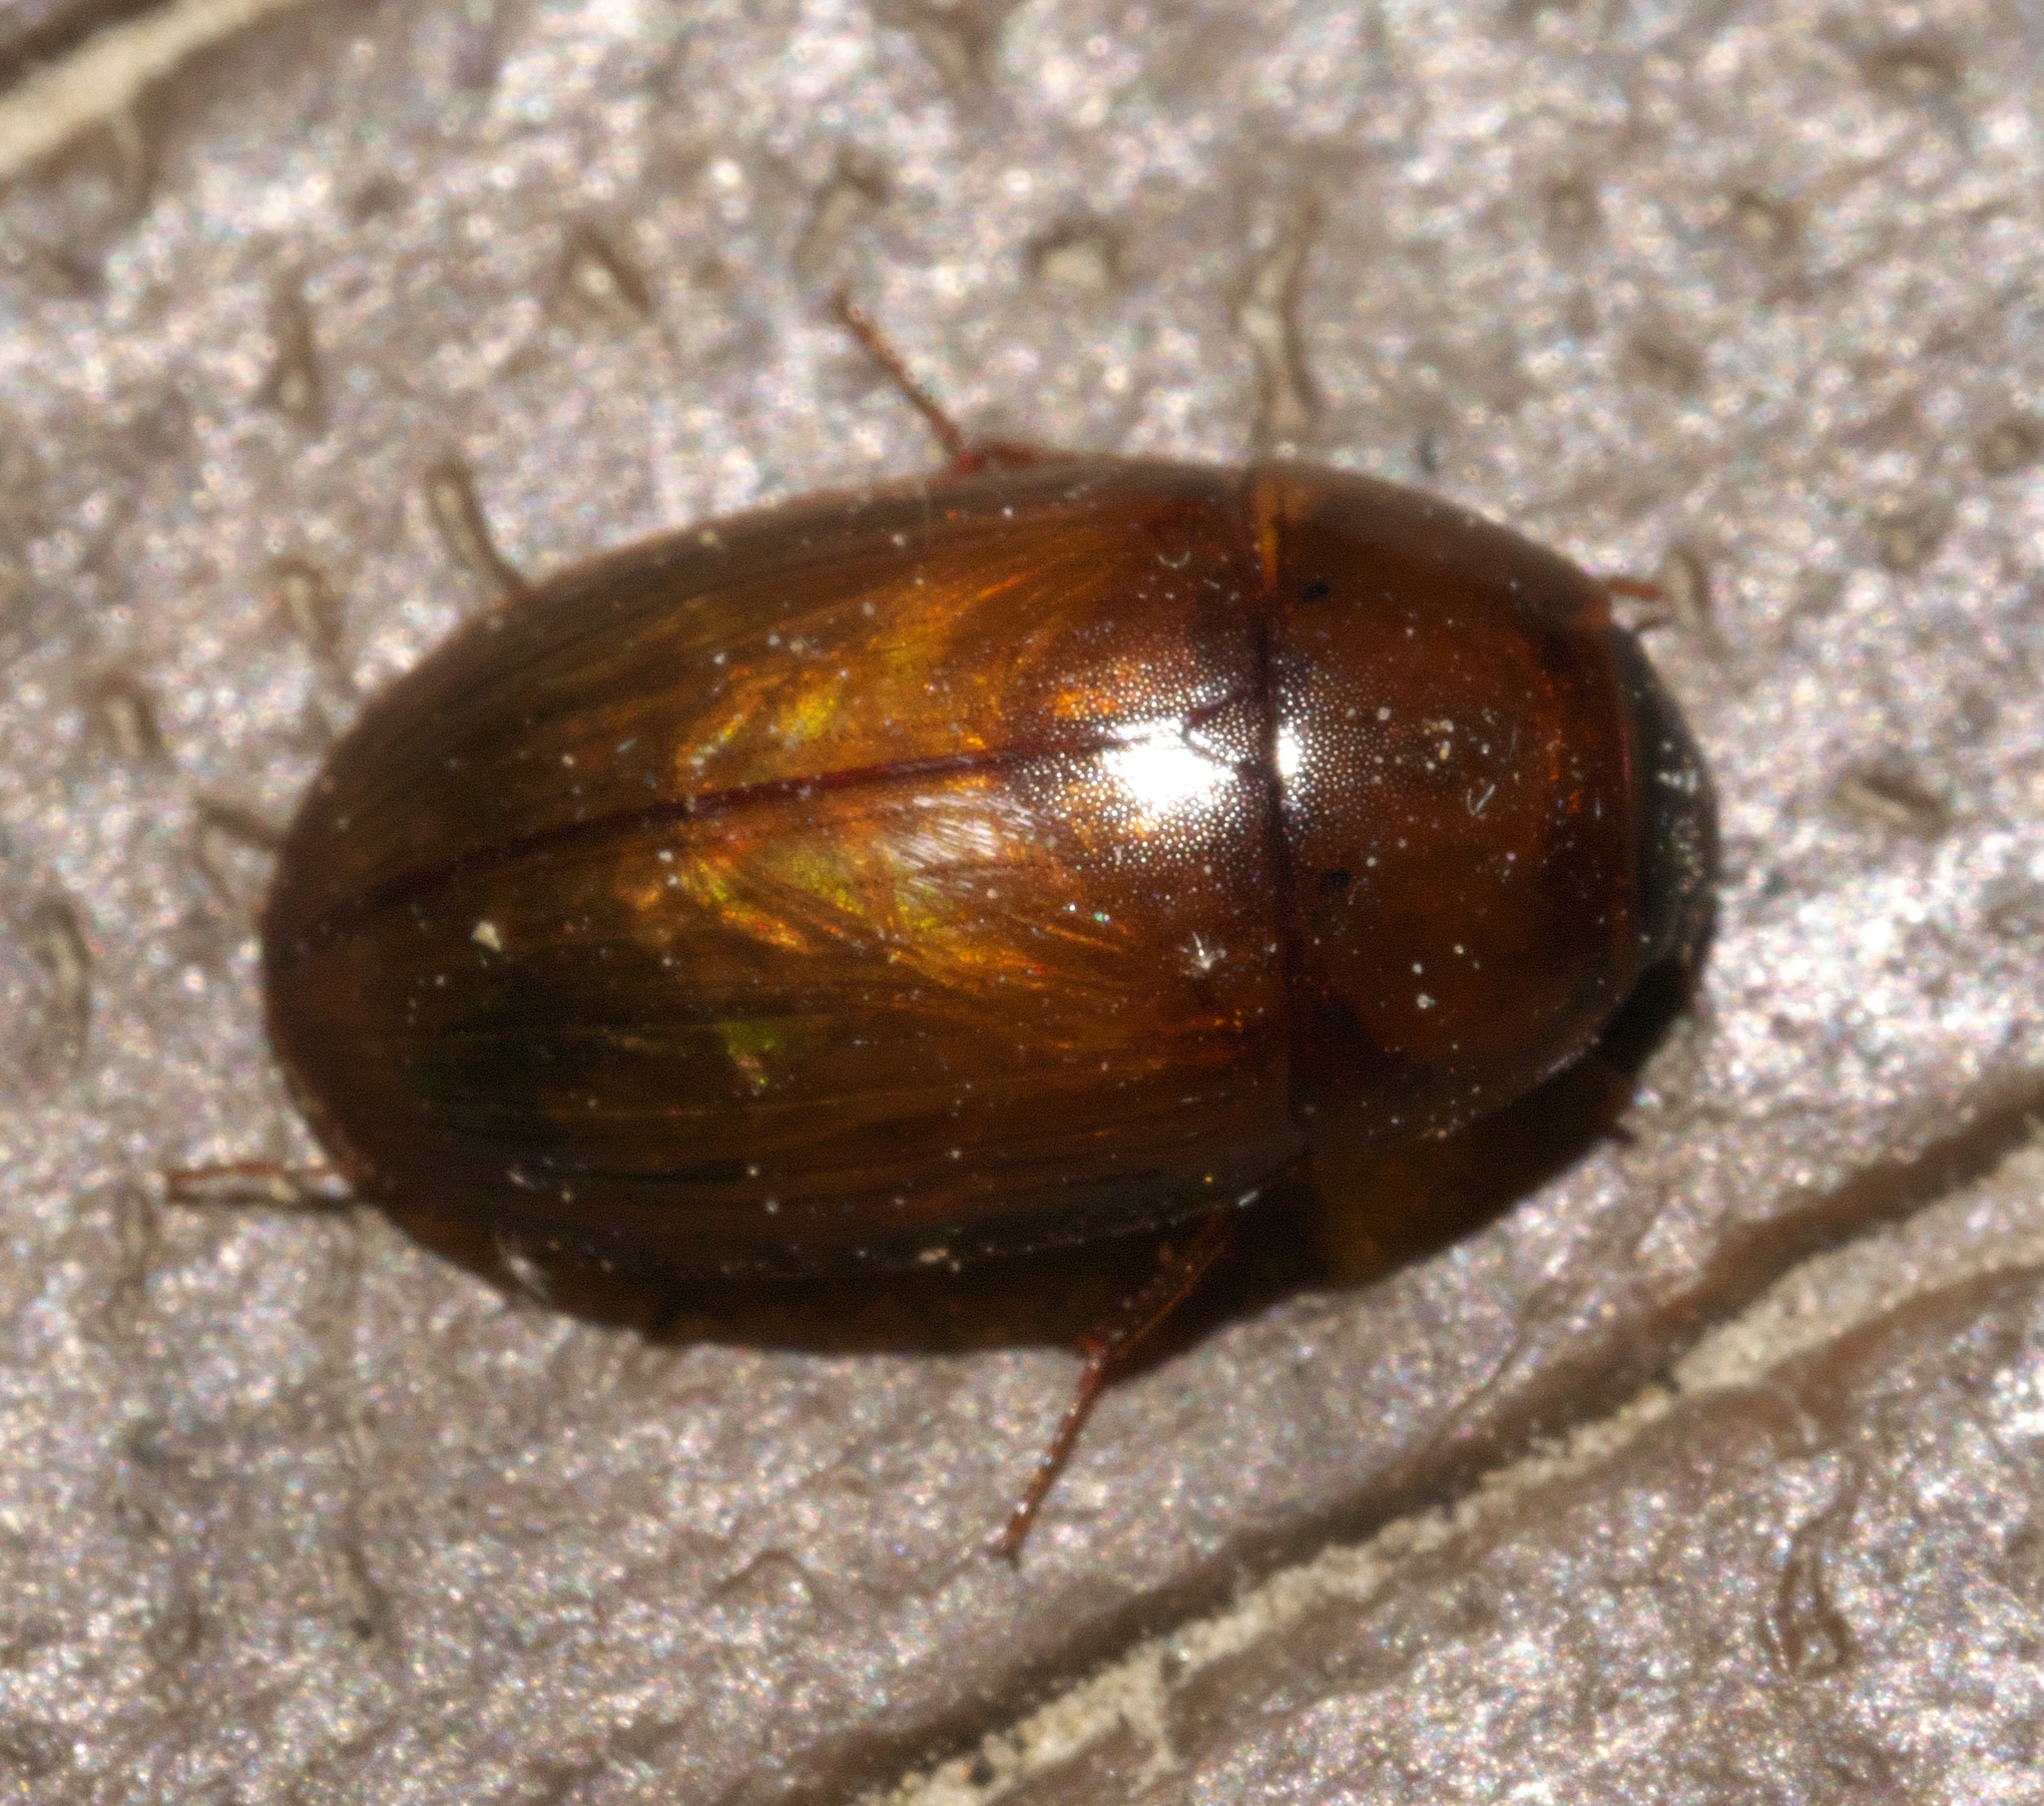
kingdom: Animalia
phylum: Arthropoda
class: Insecta
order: Coleoptera
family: Hydrophilidae
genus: Cymbiodyta
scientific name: Cymbiodyta bifida
